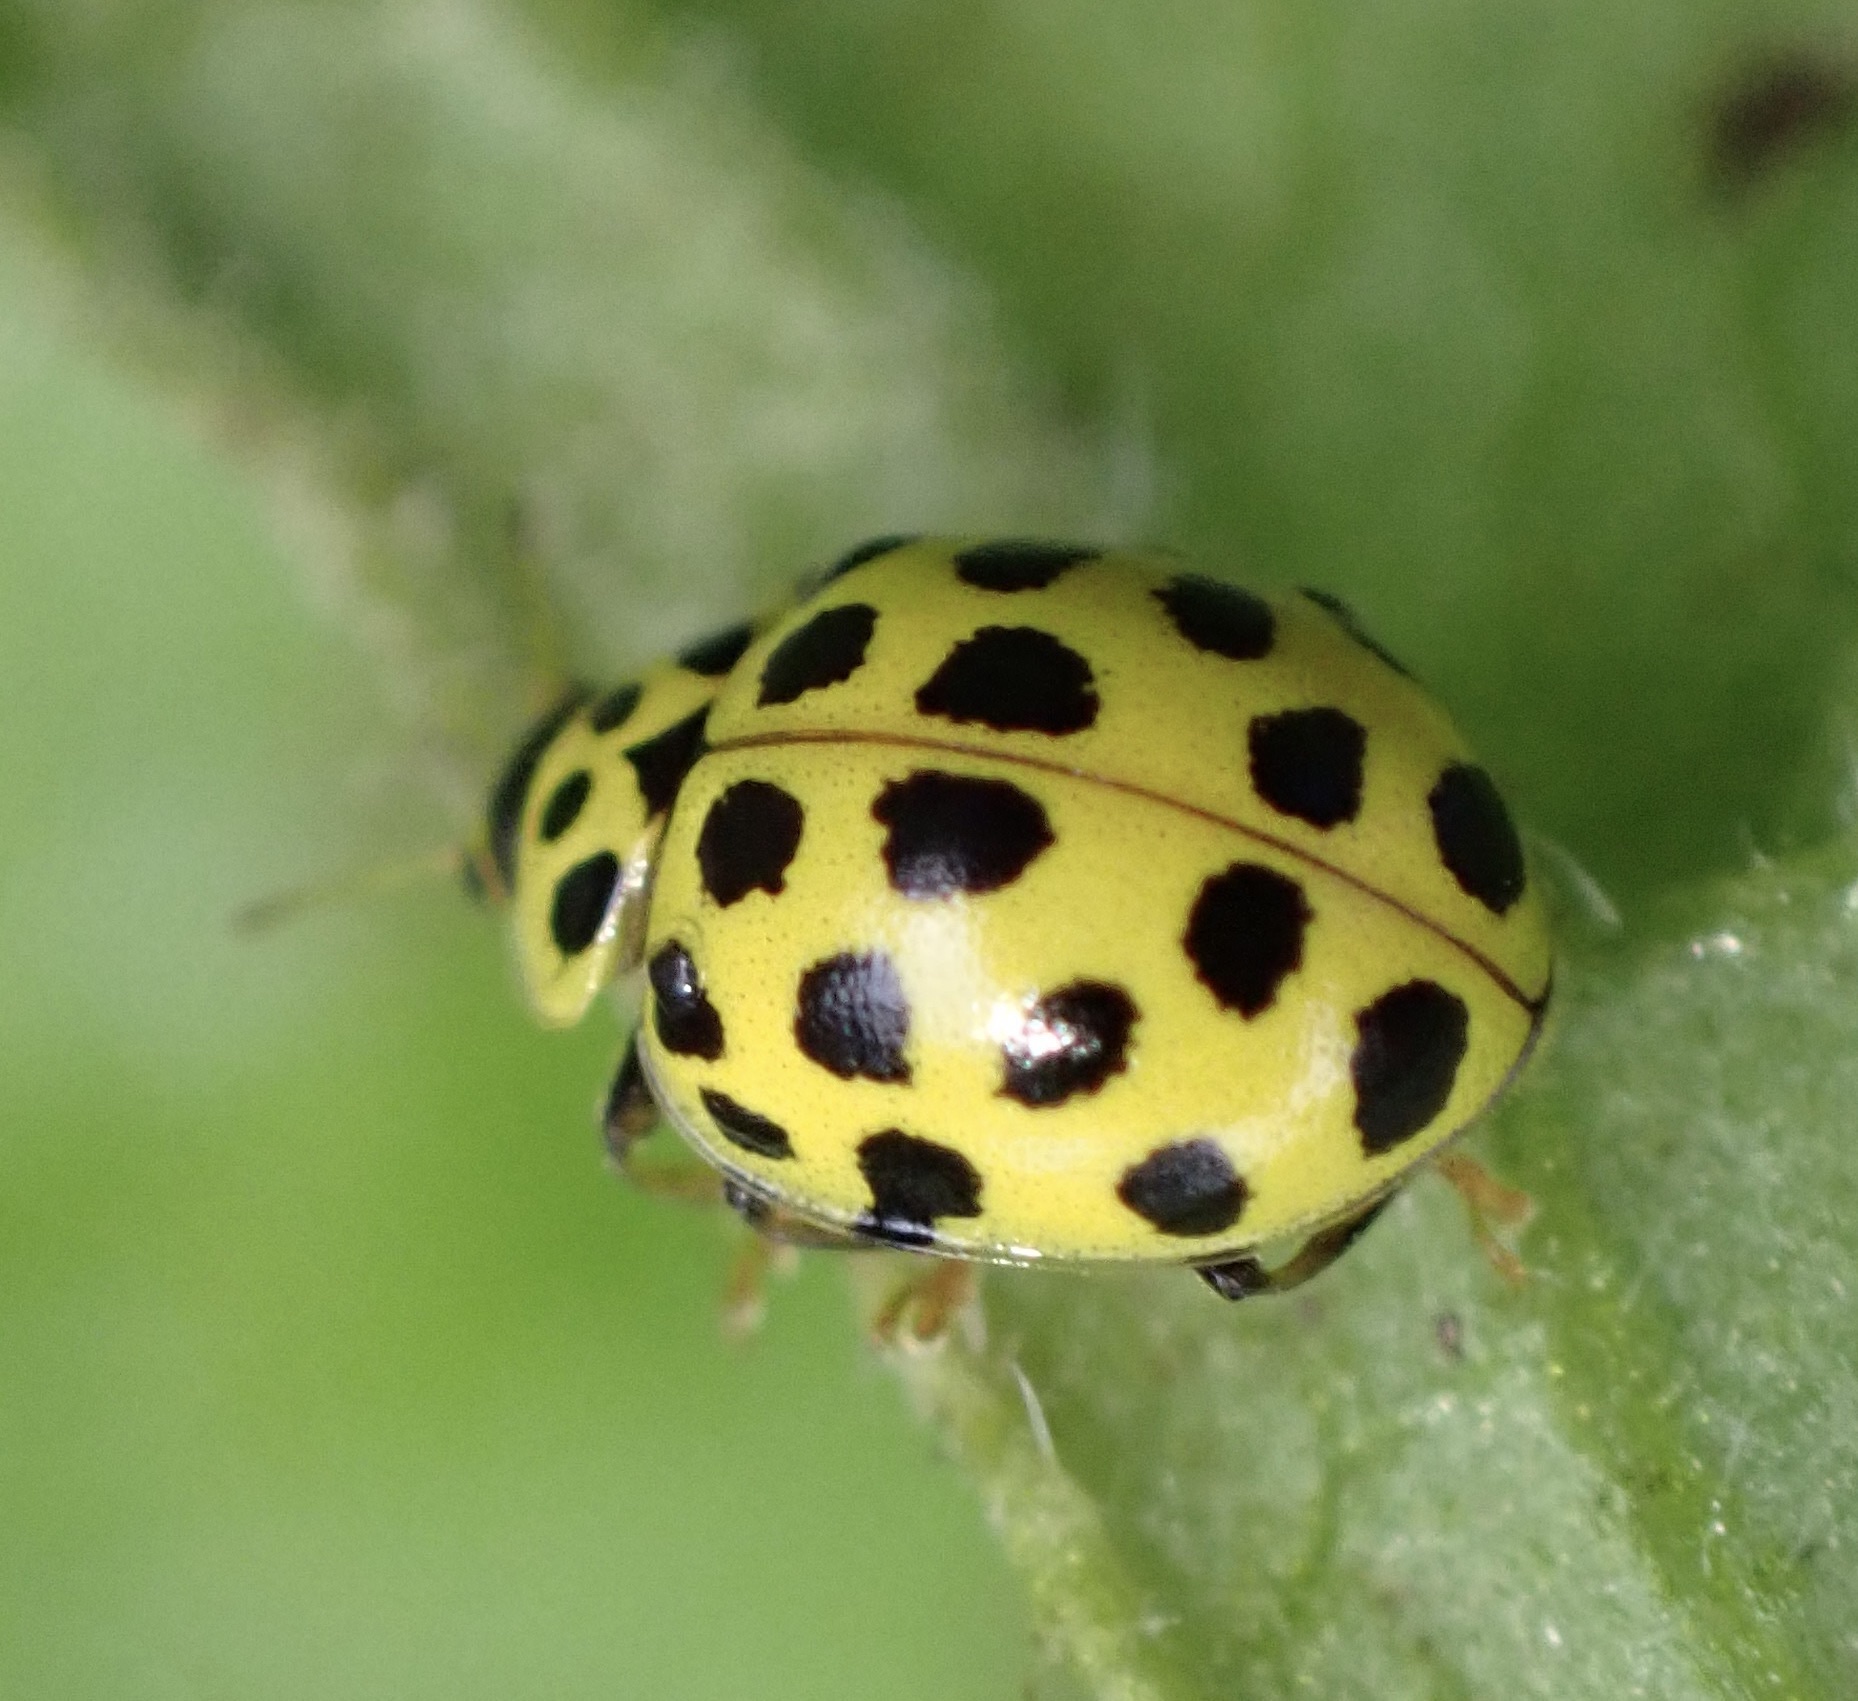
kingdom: Animalia
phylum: Arthropoda
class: Insecta
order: Coleoptera
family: Coccinellidae
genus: Psyllobora
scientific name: Psyllobora vigintiduopunctata
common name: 22-spot ladybird
